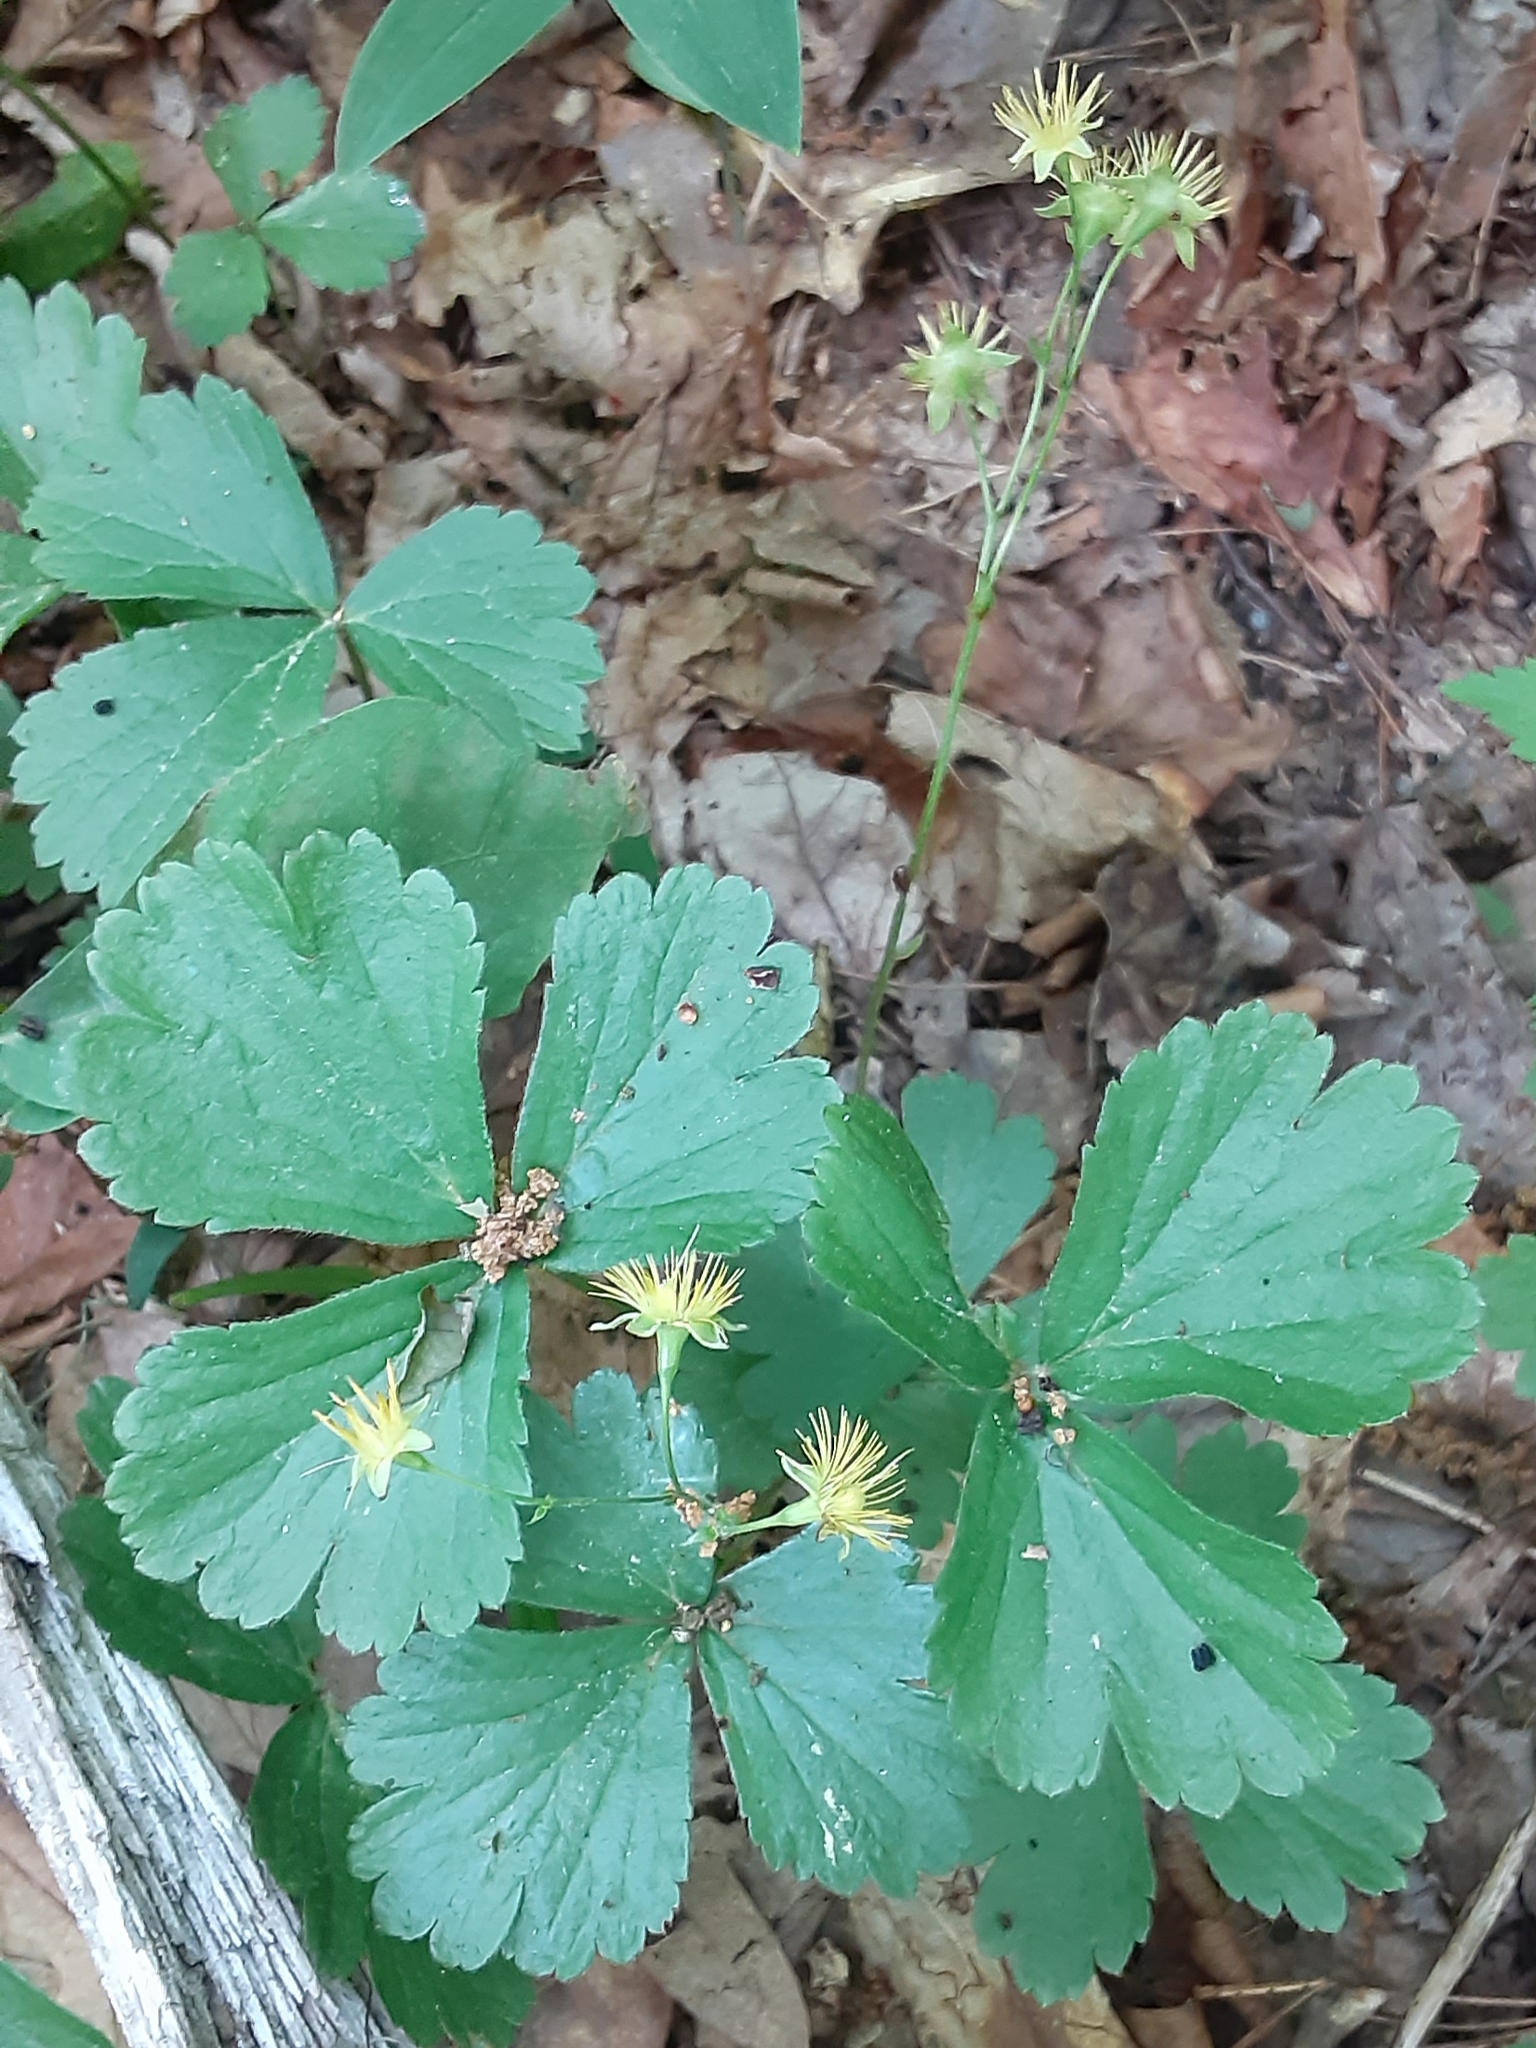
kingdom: Plantae
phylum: Tracheophyta
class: Magnoliopsida
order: Rosales
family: Rosaceae
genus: Geum
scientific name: Geum fragarioides
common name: Appalachian barren strawberry
